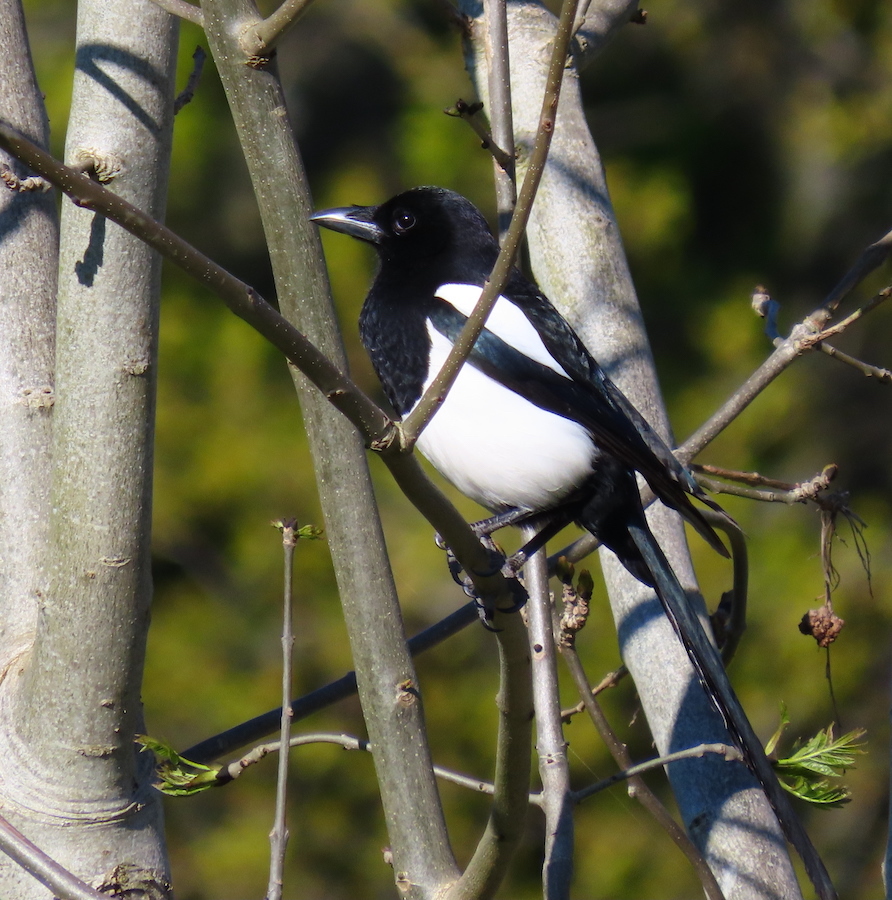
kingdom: Animalia
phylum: Chordata
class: Aves
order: Passeriformes
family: Corvidae
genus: Pica
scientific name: Pica pica
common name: Eurasian magpie
